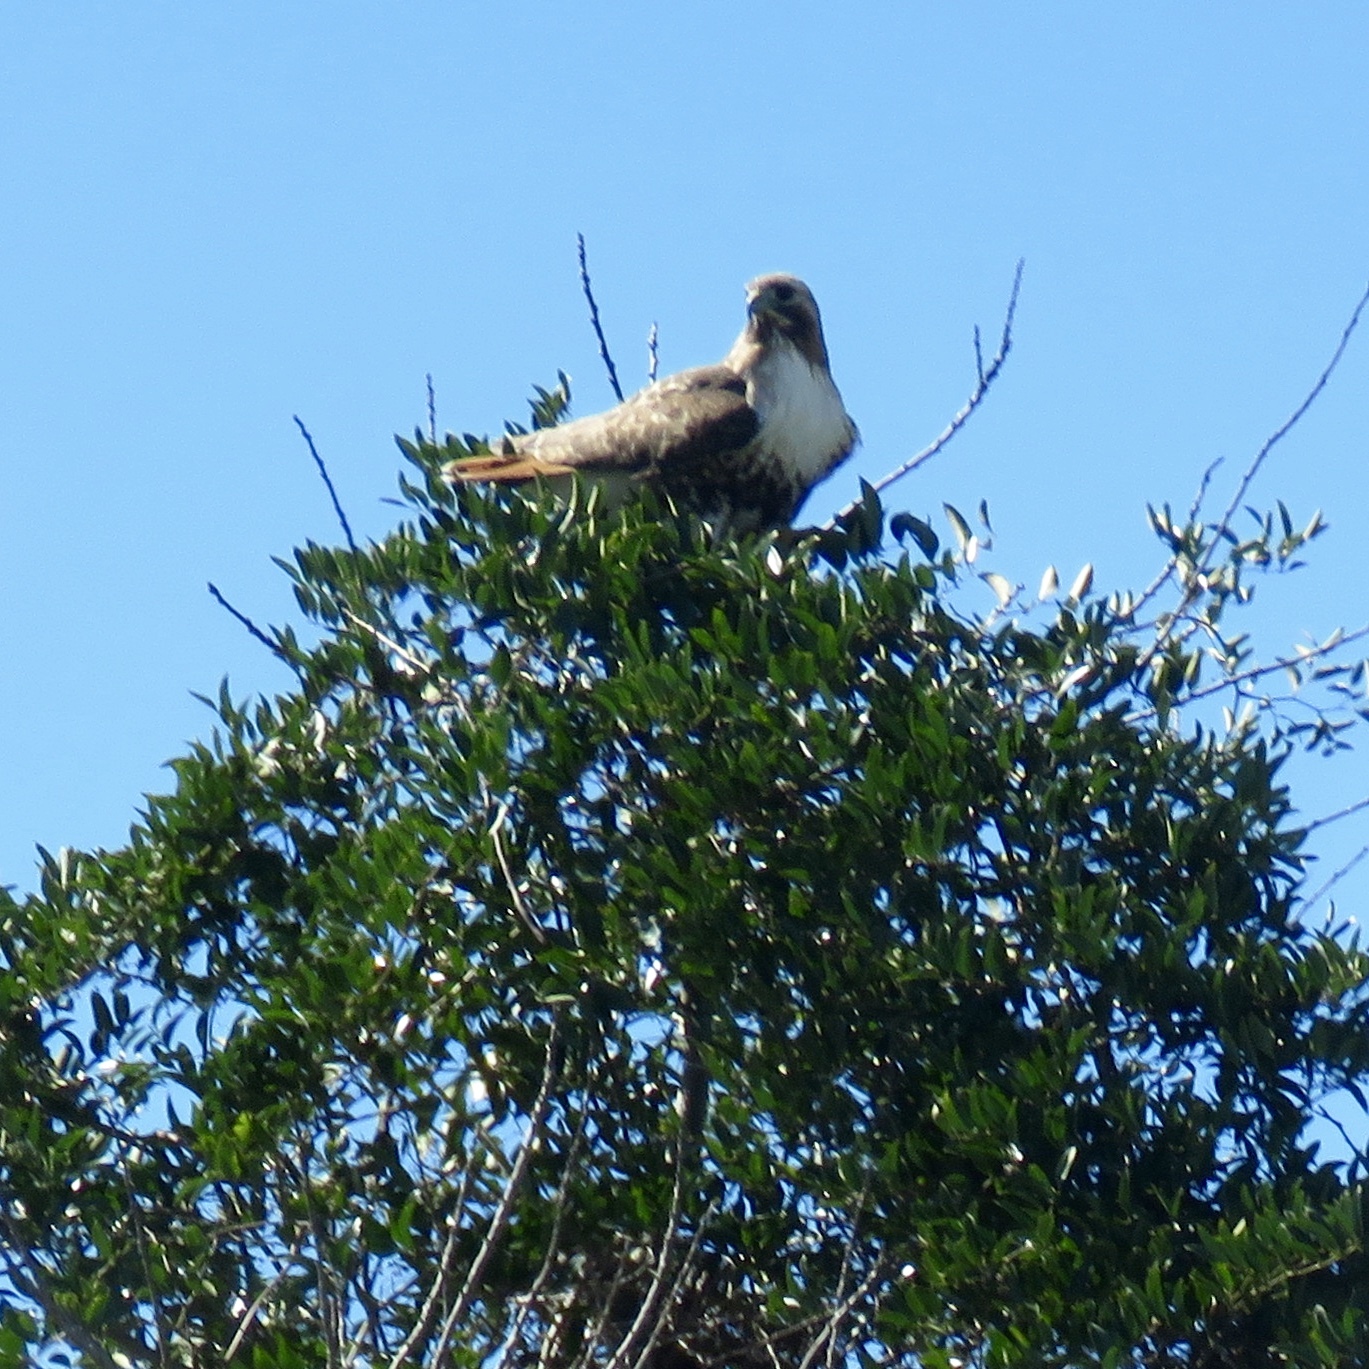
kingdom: Animalia
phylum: Chordata
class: Aves
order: Accipitriformes
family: Accipitridae
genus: Buteo
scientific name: Buteo jamaicensis
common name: Red-tailed hawk
